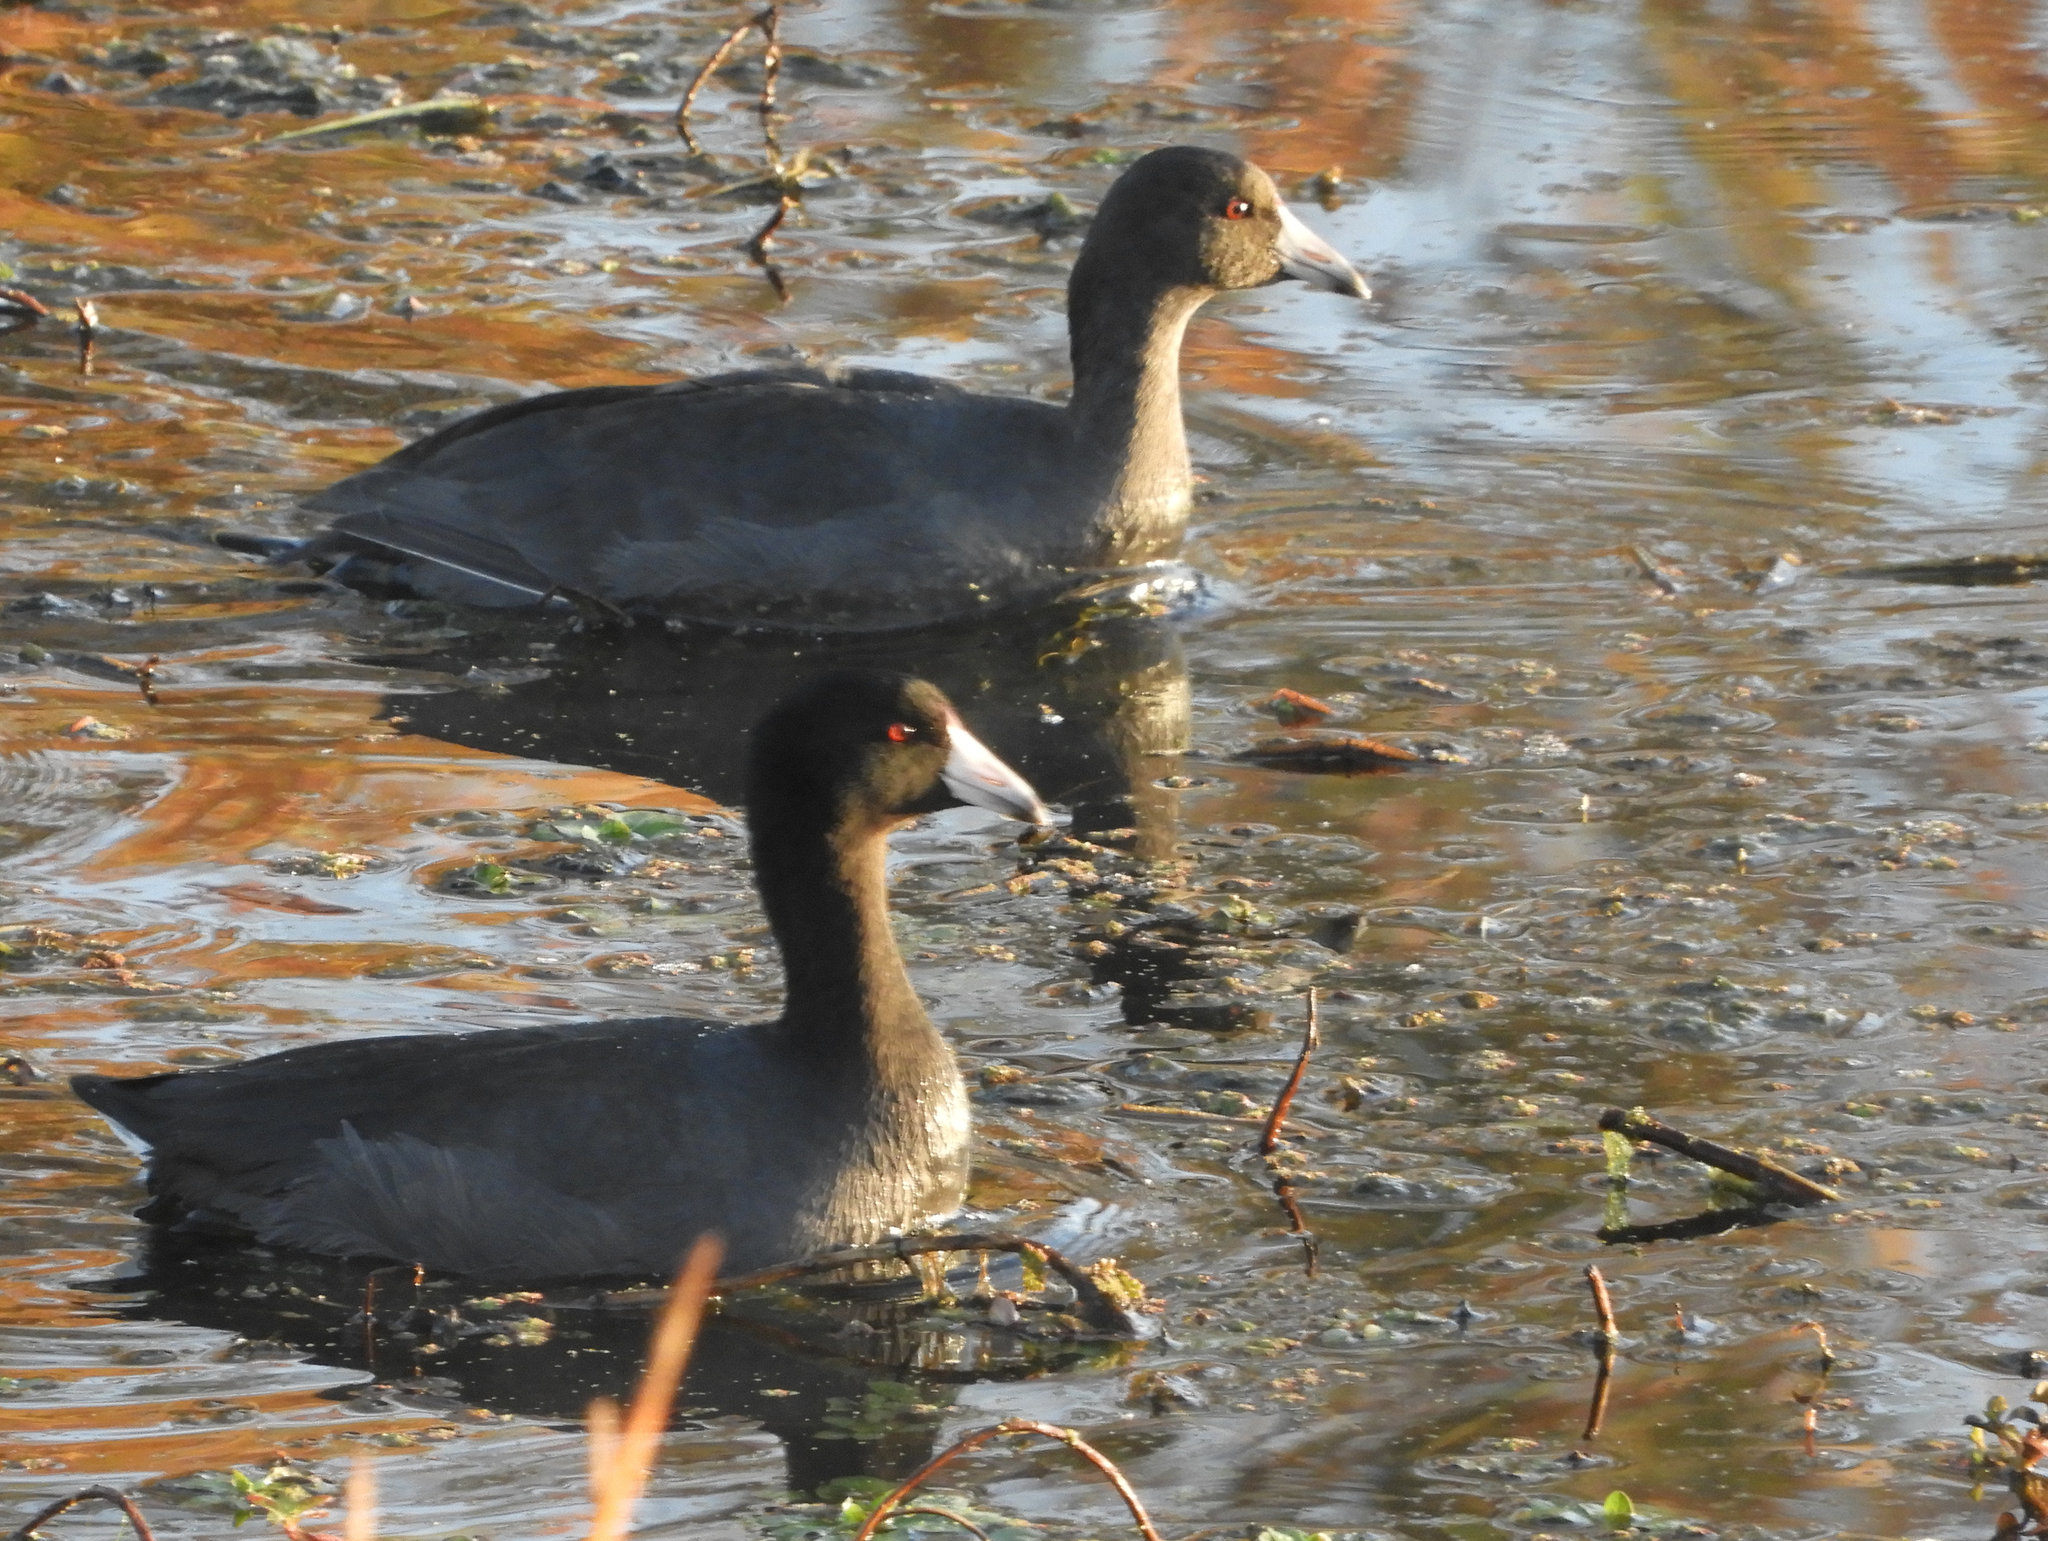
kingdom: Animalia
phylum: Chordata
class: Aves
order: Gruiformes
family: Rallidae
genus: Fulica
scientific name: Fulica americana
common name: American coot
